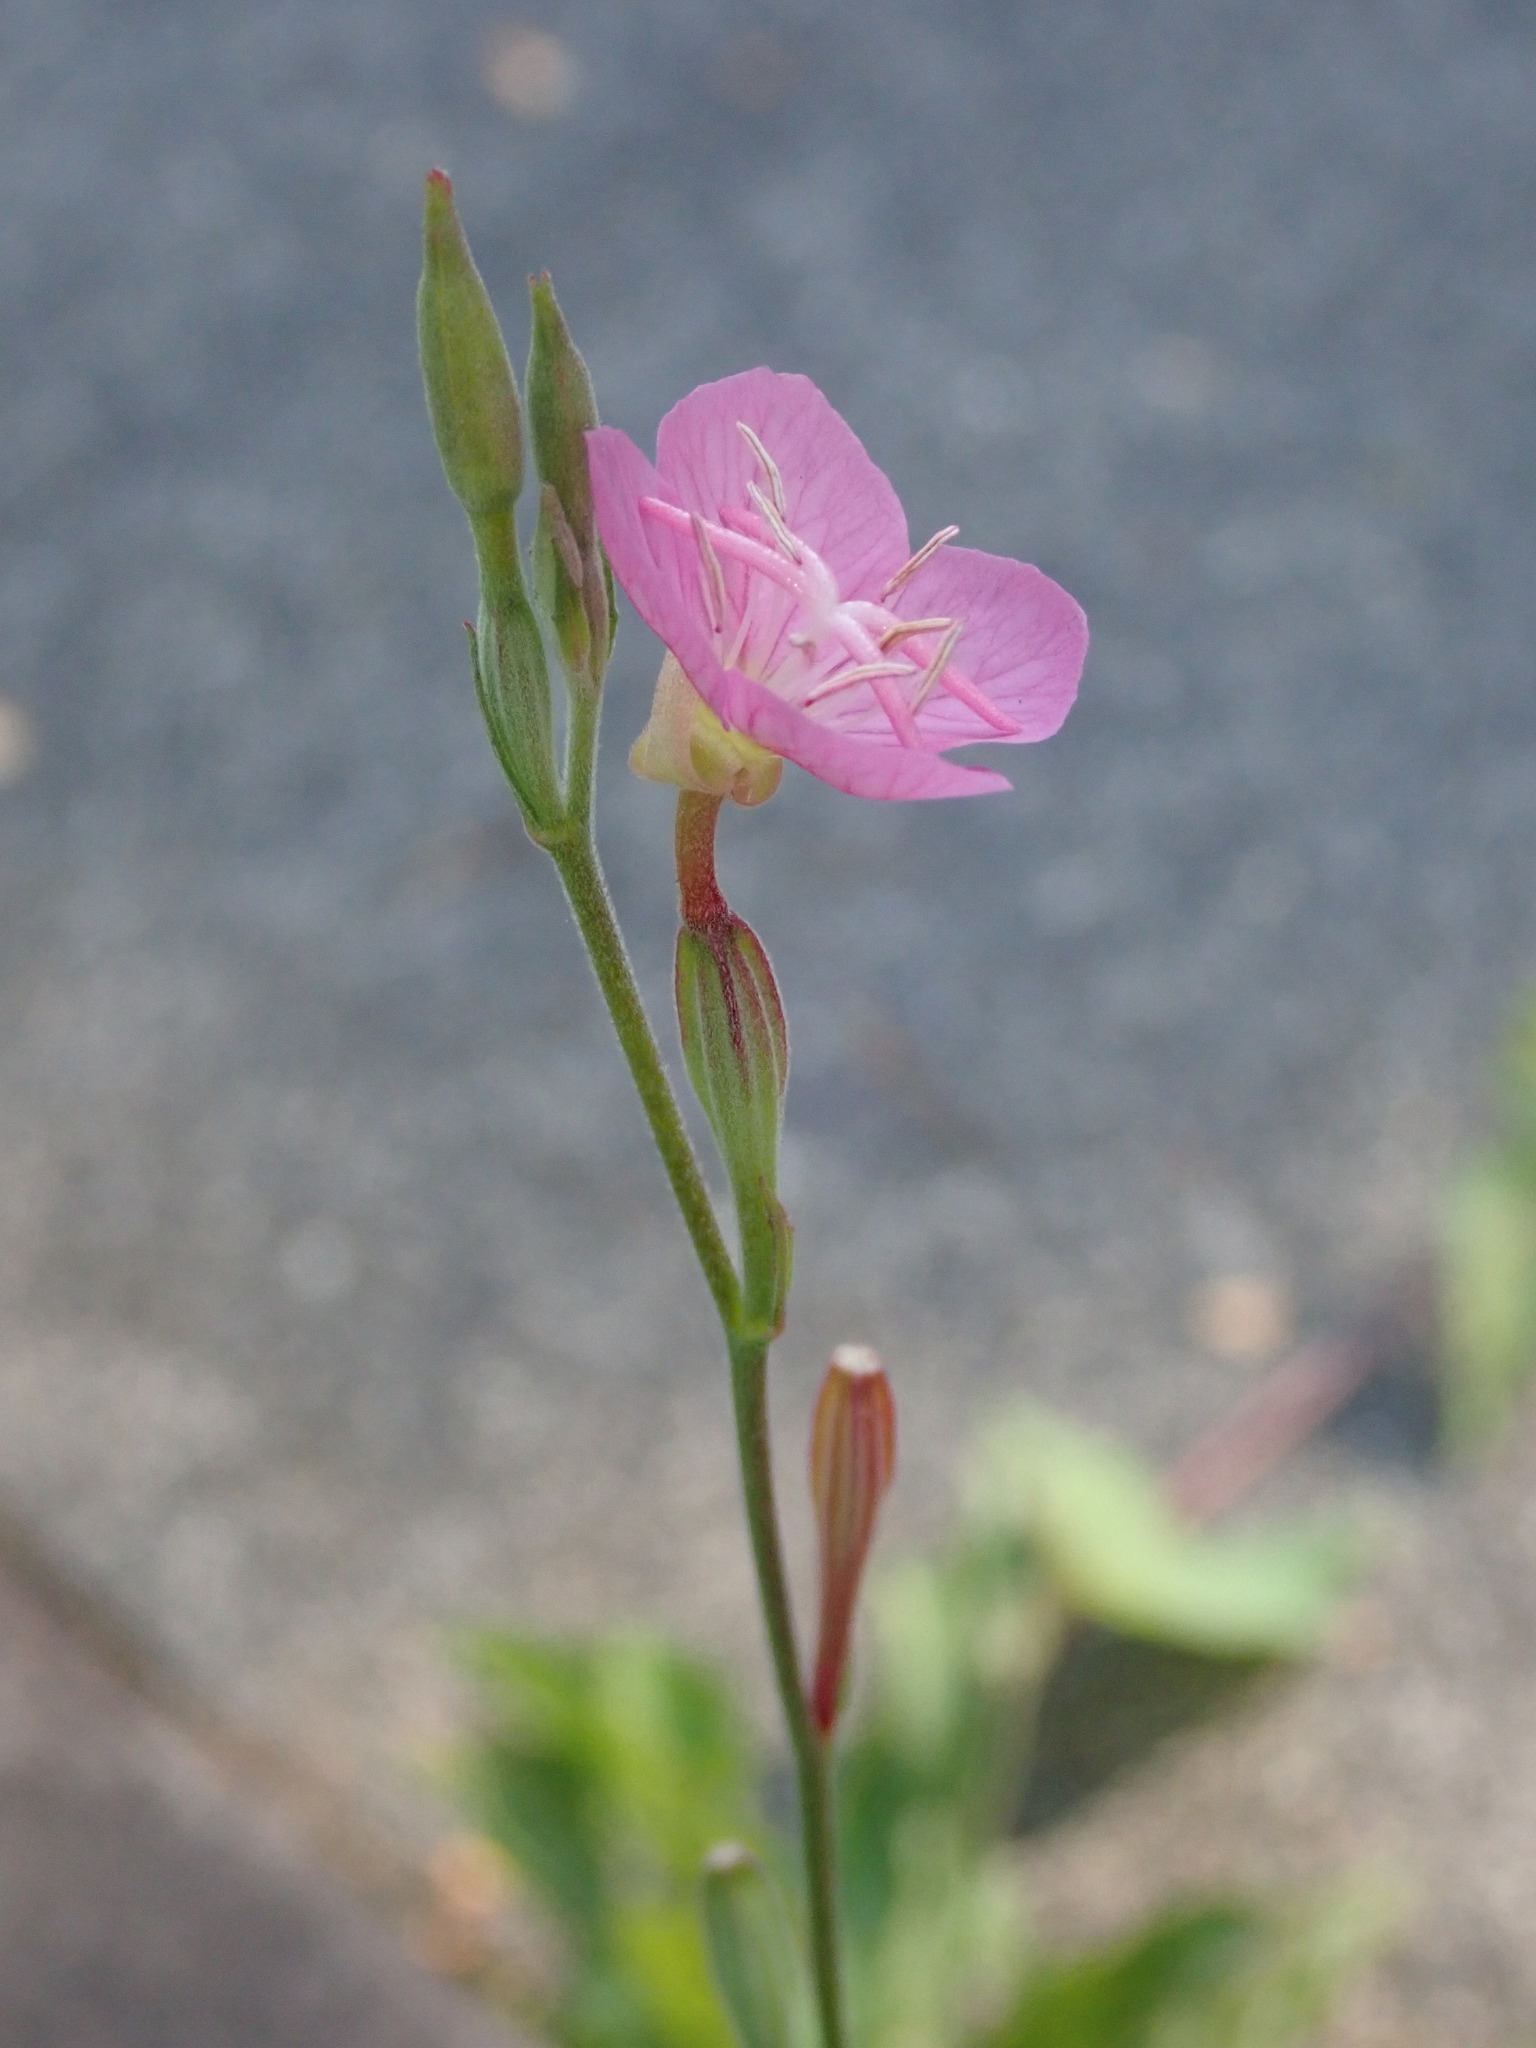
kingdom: Plantae
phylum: Tracheophyta
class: Magnoliopsida
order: Myrtales
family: Onagraceae
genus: Oenothera
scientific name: Oenothera rosea
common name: Rosy evening-primrose
